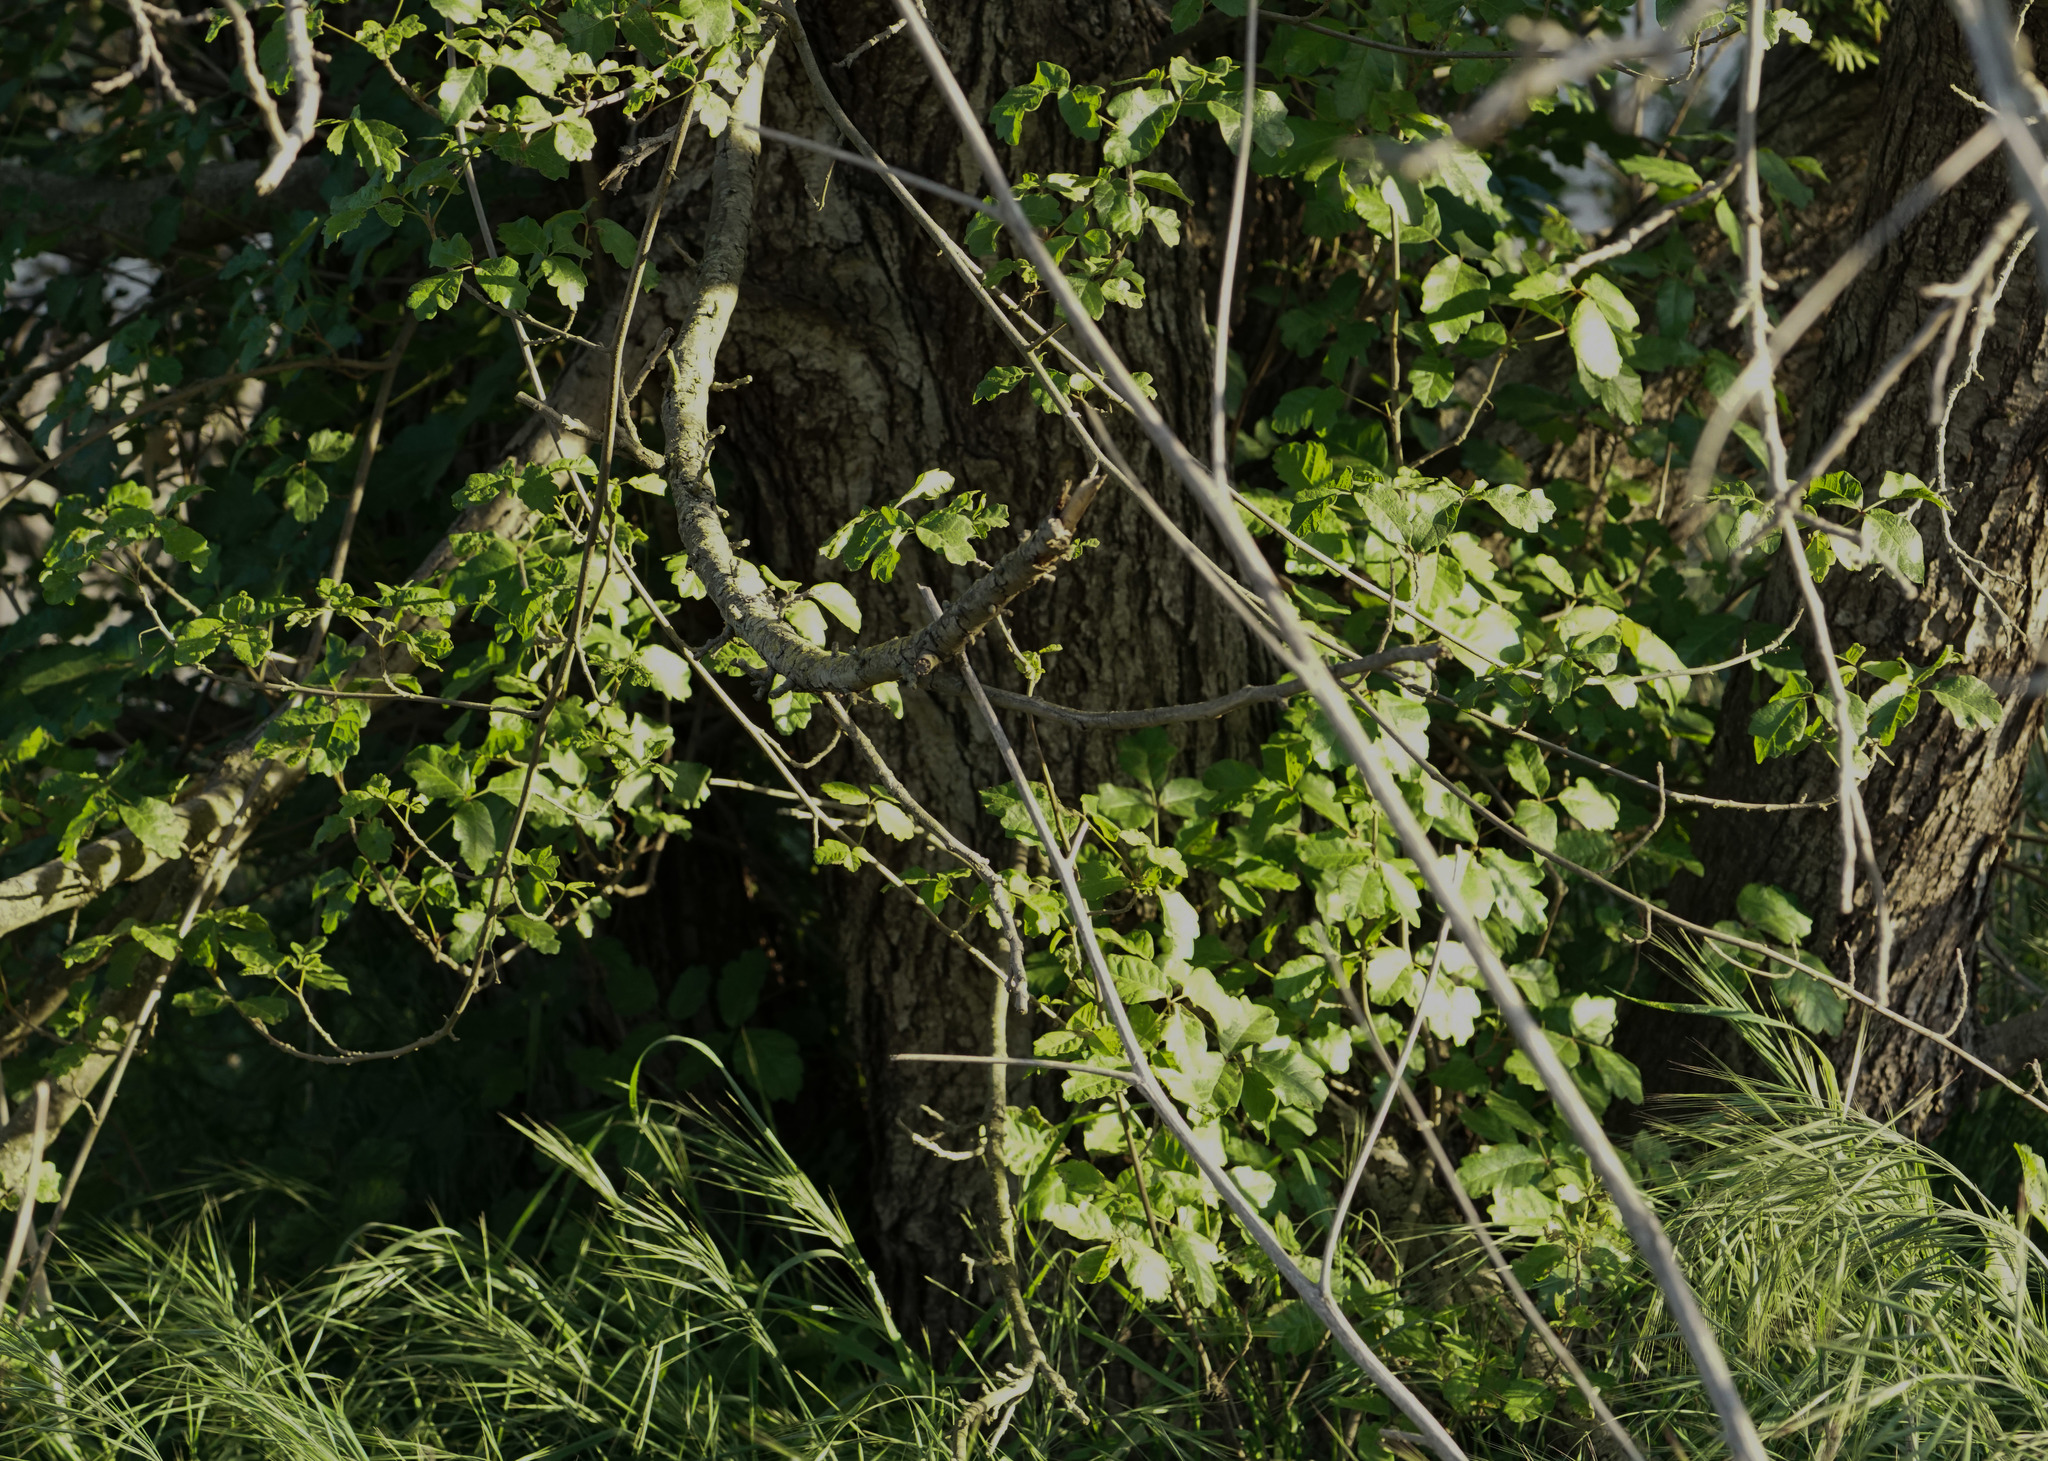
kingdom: Plantae
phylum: Tracheophyta
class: Magnoliopsida
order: Sapindales
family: Anacardiaceae
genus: Toxicodendron
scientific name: Toxicodendron diversilobum
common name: Pacific poison-oak
